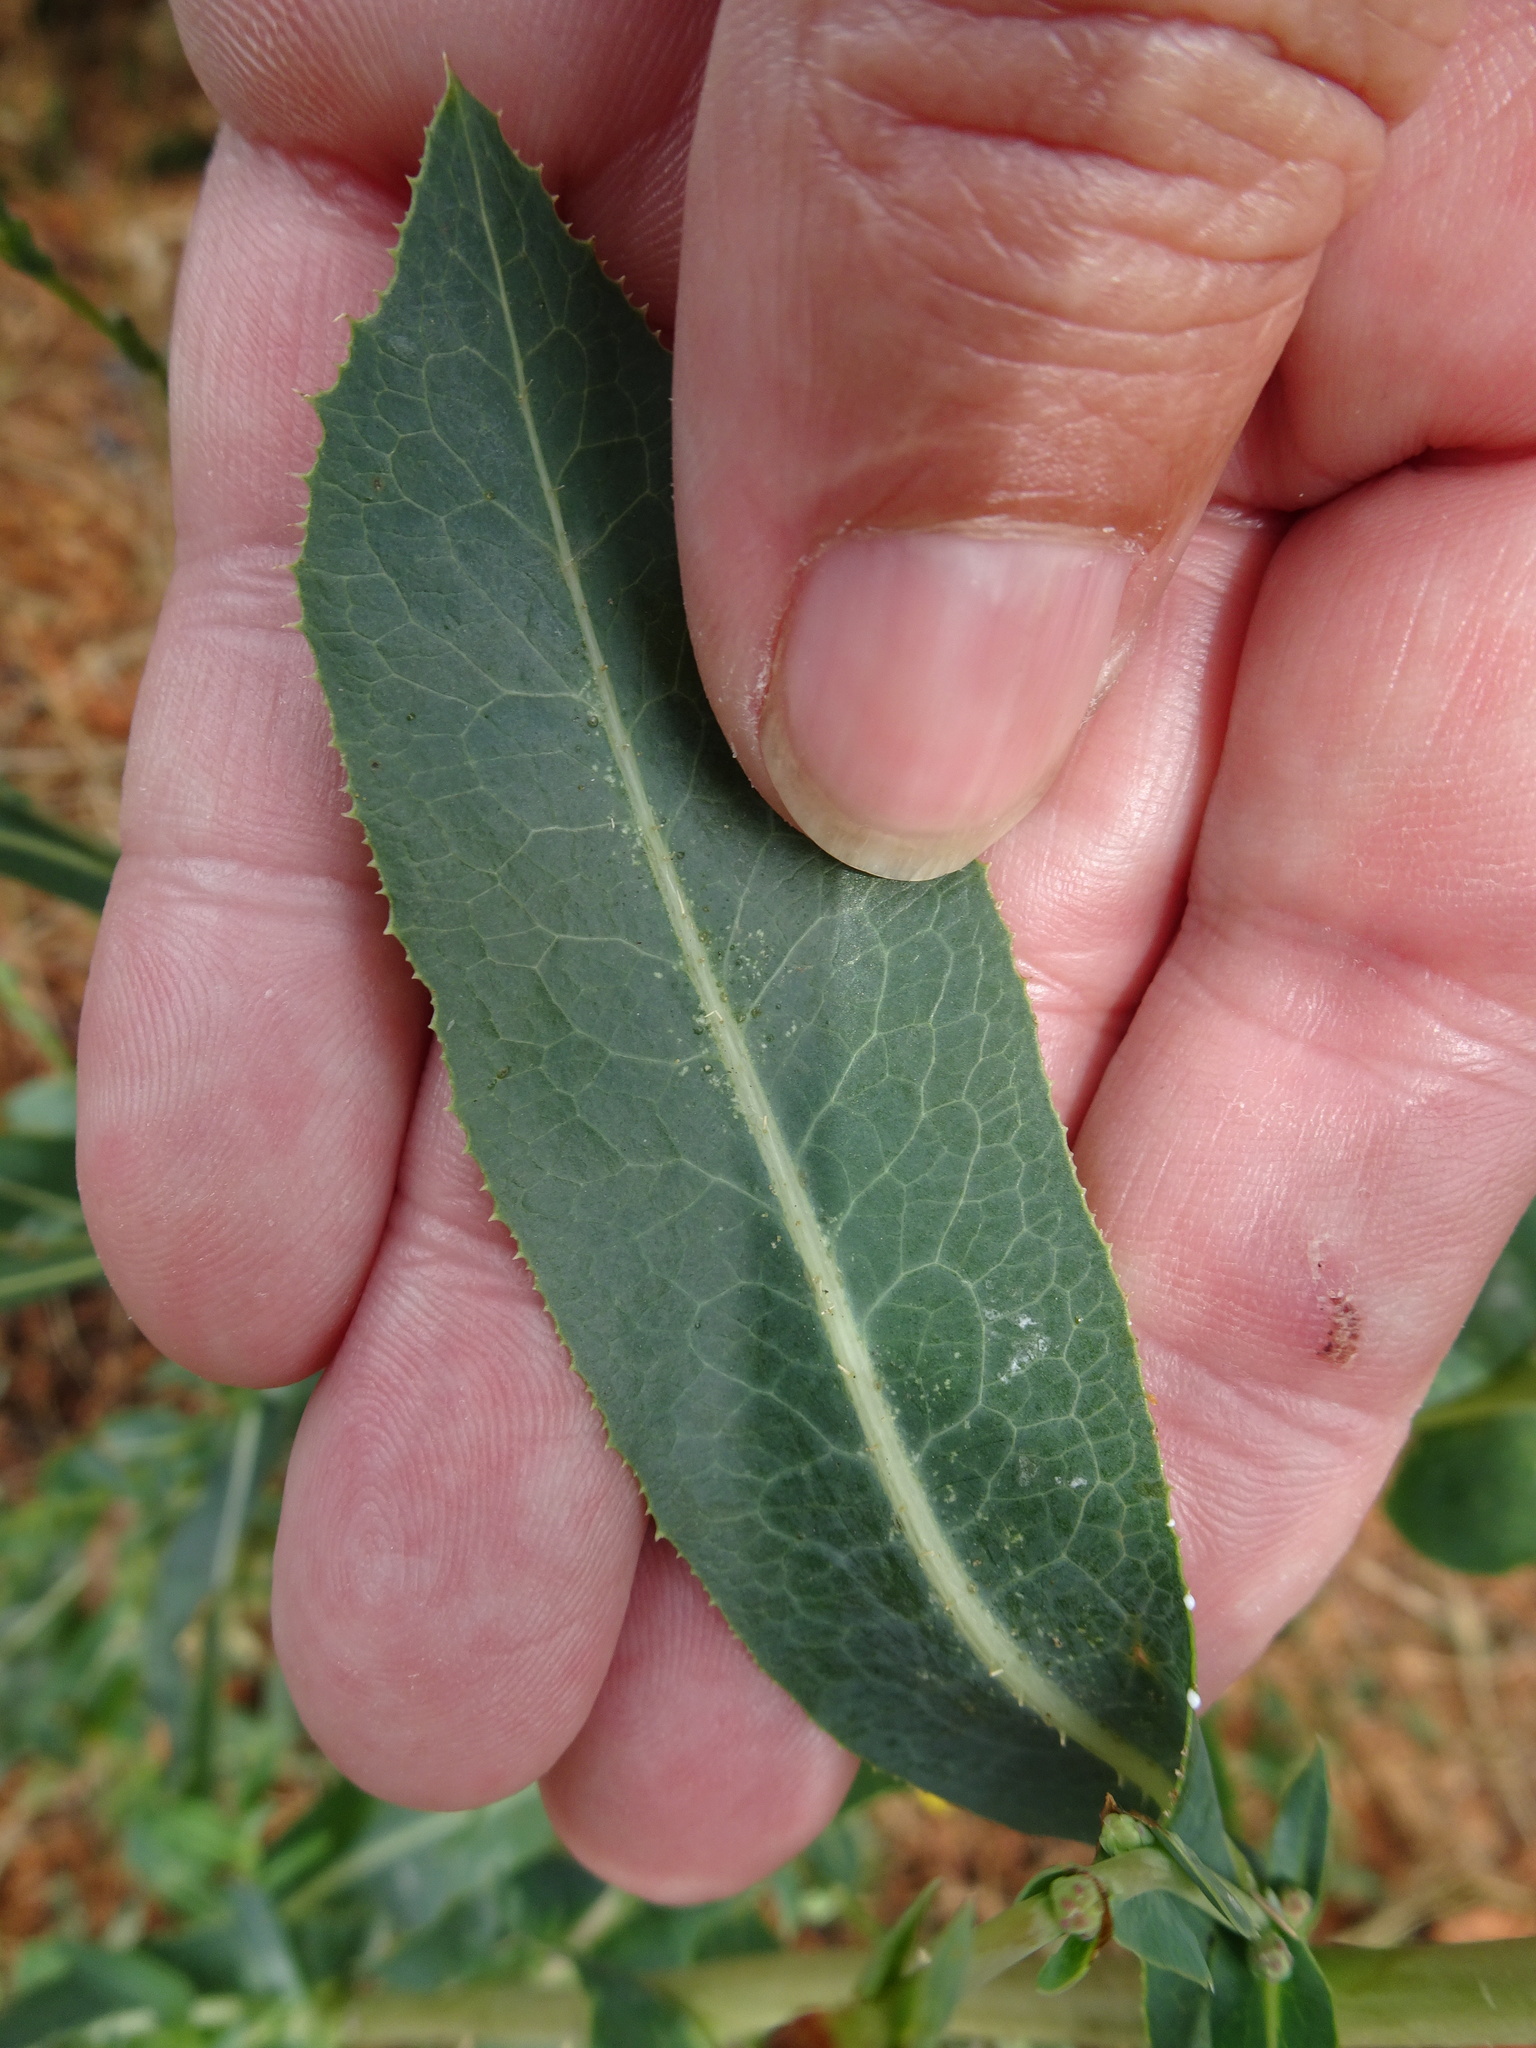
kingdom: Plantae
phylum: Tracheophyta
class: Magnoliopsida
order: Asterales
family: Asteraceae
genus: Lactuca
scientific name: Lactuca serriola
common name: Prickly lettuce
